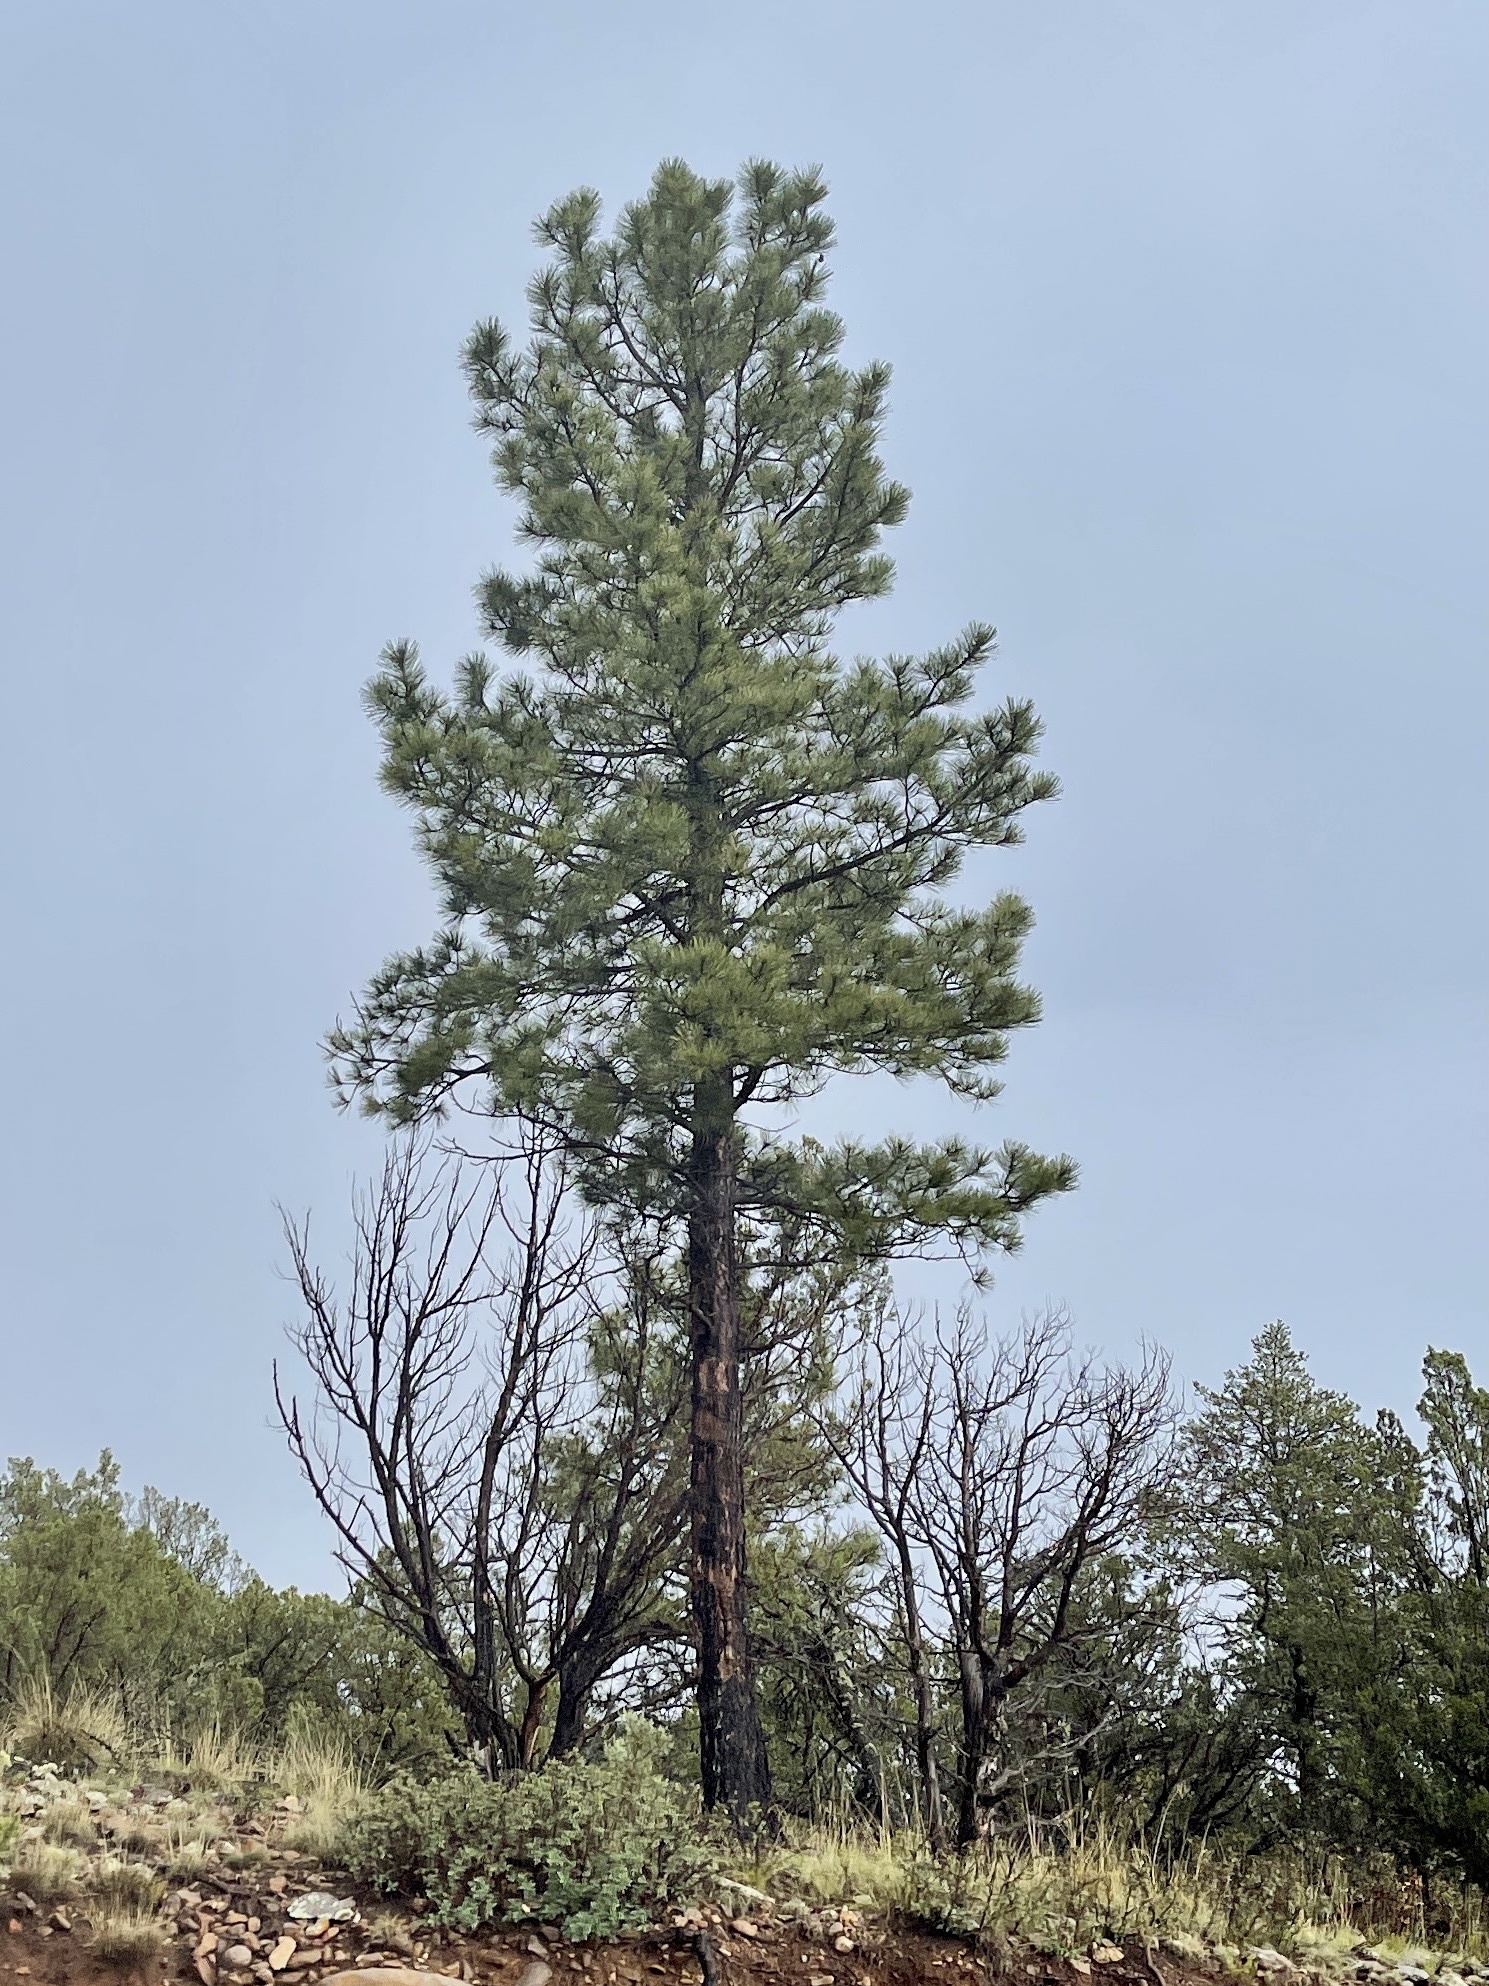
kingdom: Plantae
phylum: Tracheophyta
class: Pinopsida
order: Pinales
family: Pinaceae
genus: Pinus
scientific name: Pinus ponderosa
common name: Western yellow-pine
